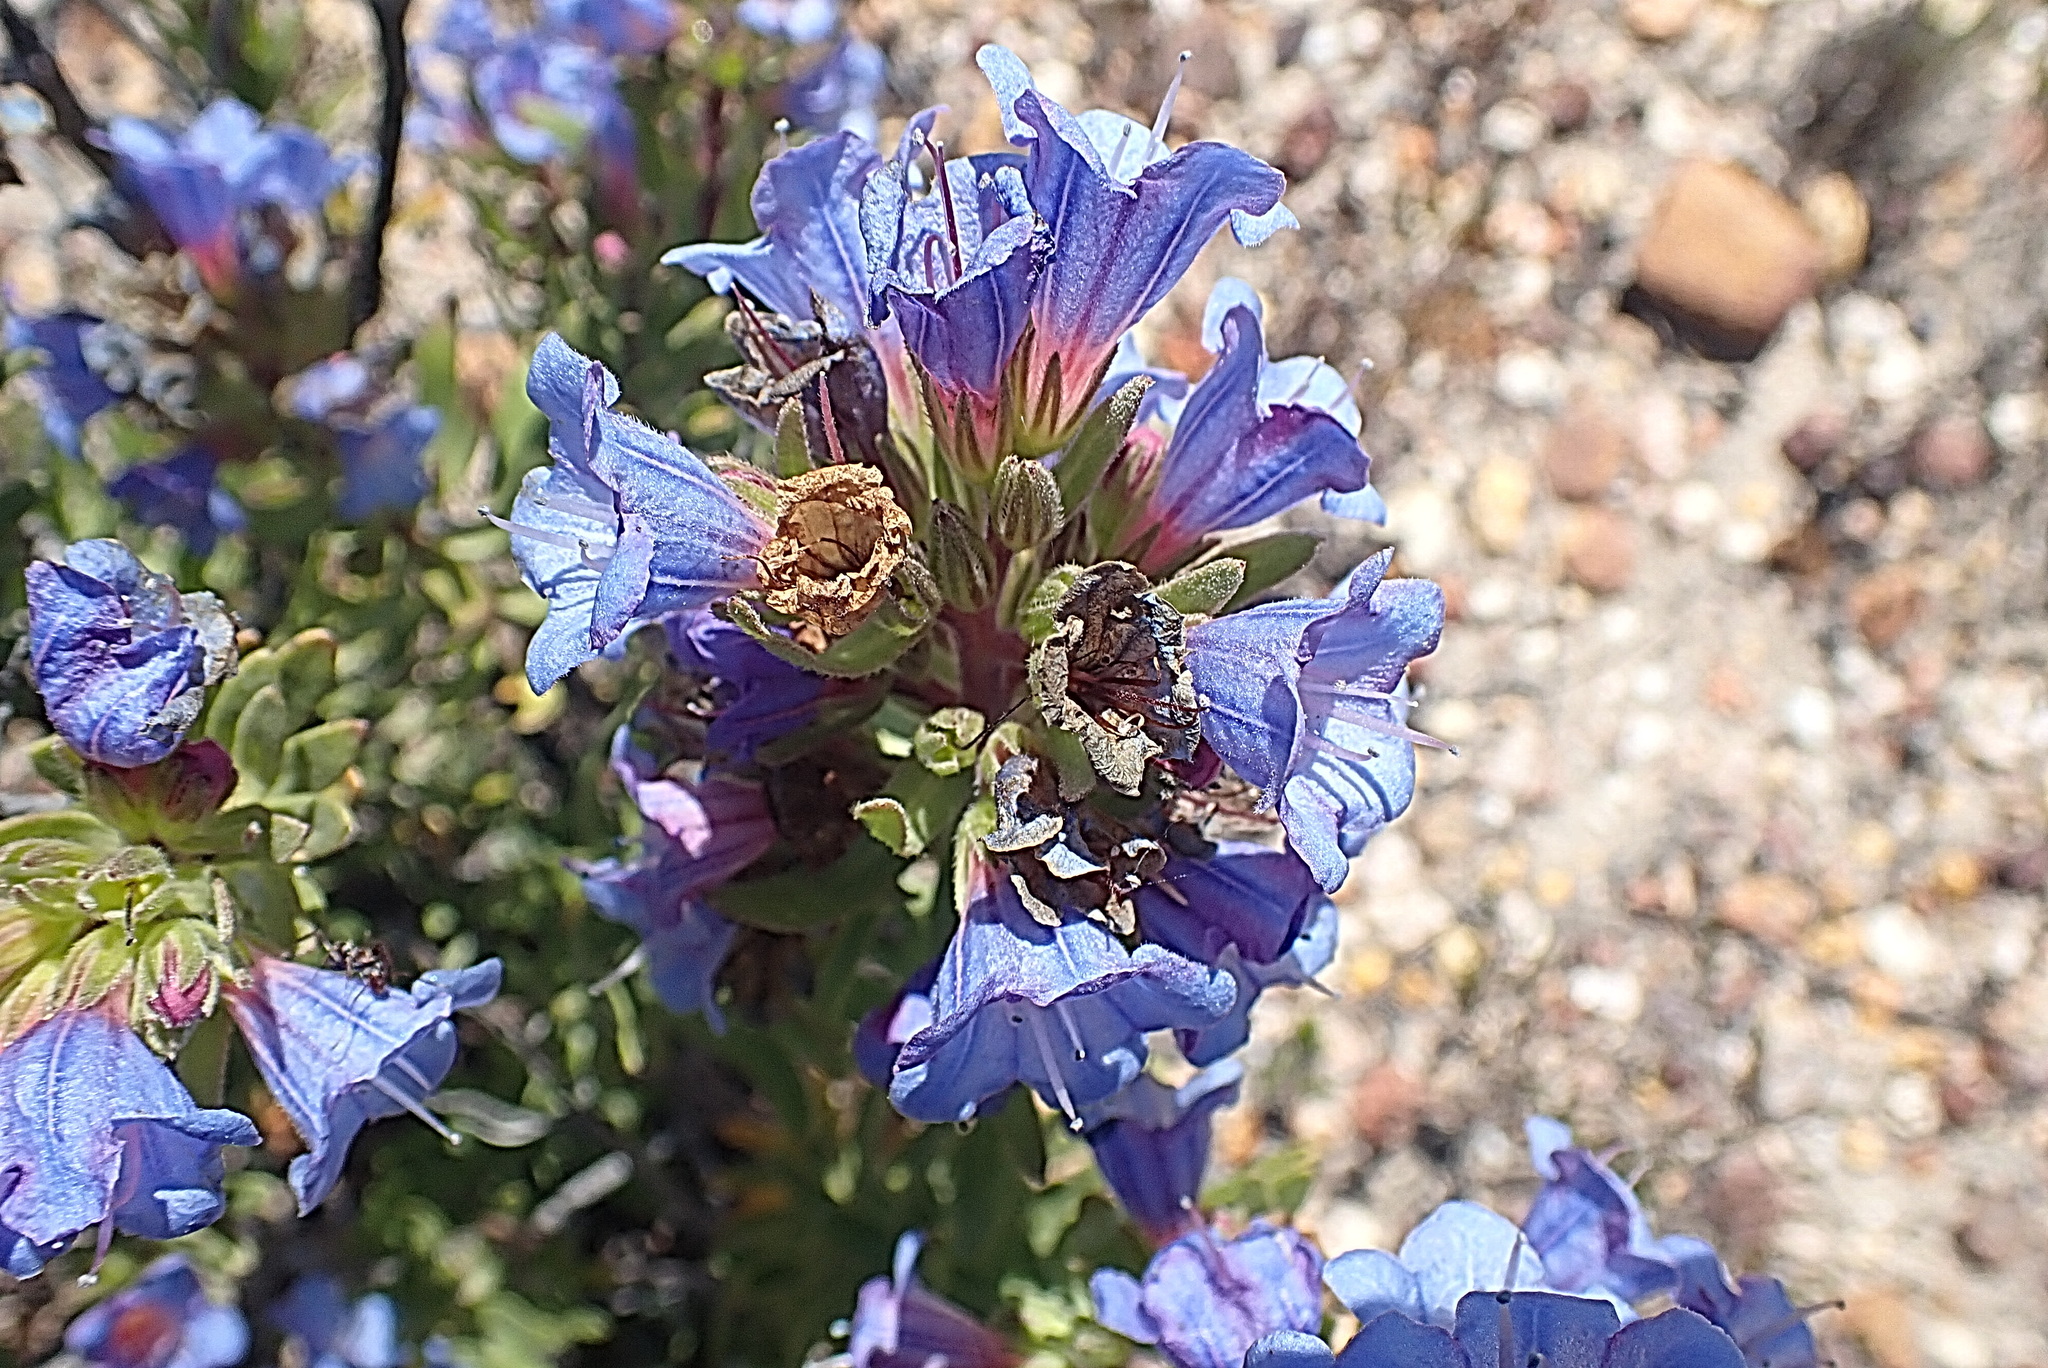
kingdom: Plantae
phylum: Tracheophyta
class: Magnoliopsida
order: Boraginales
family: Boraginaceae
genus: Lobostemon
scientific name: Lobostemon marlothii
